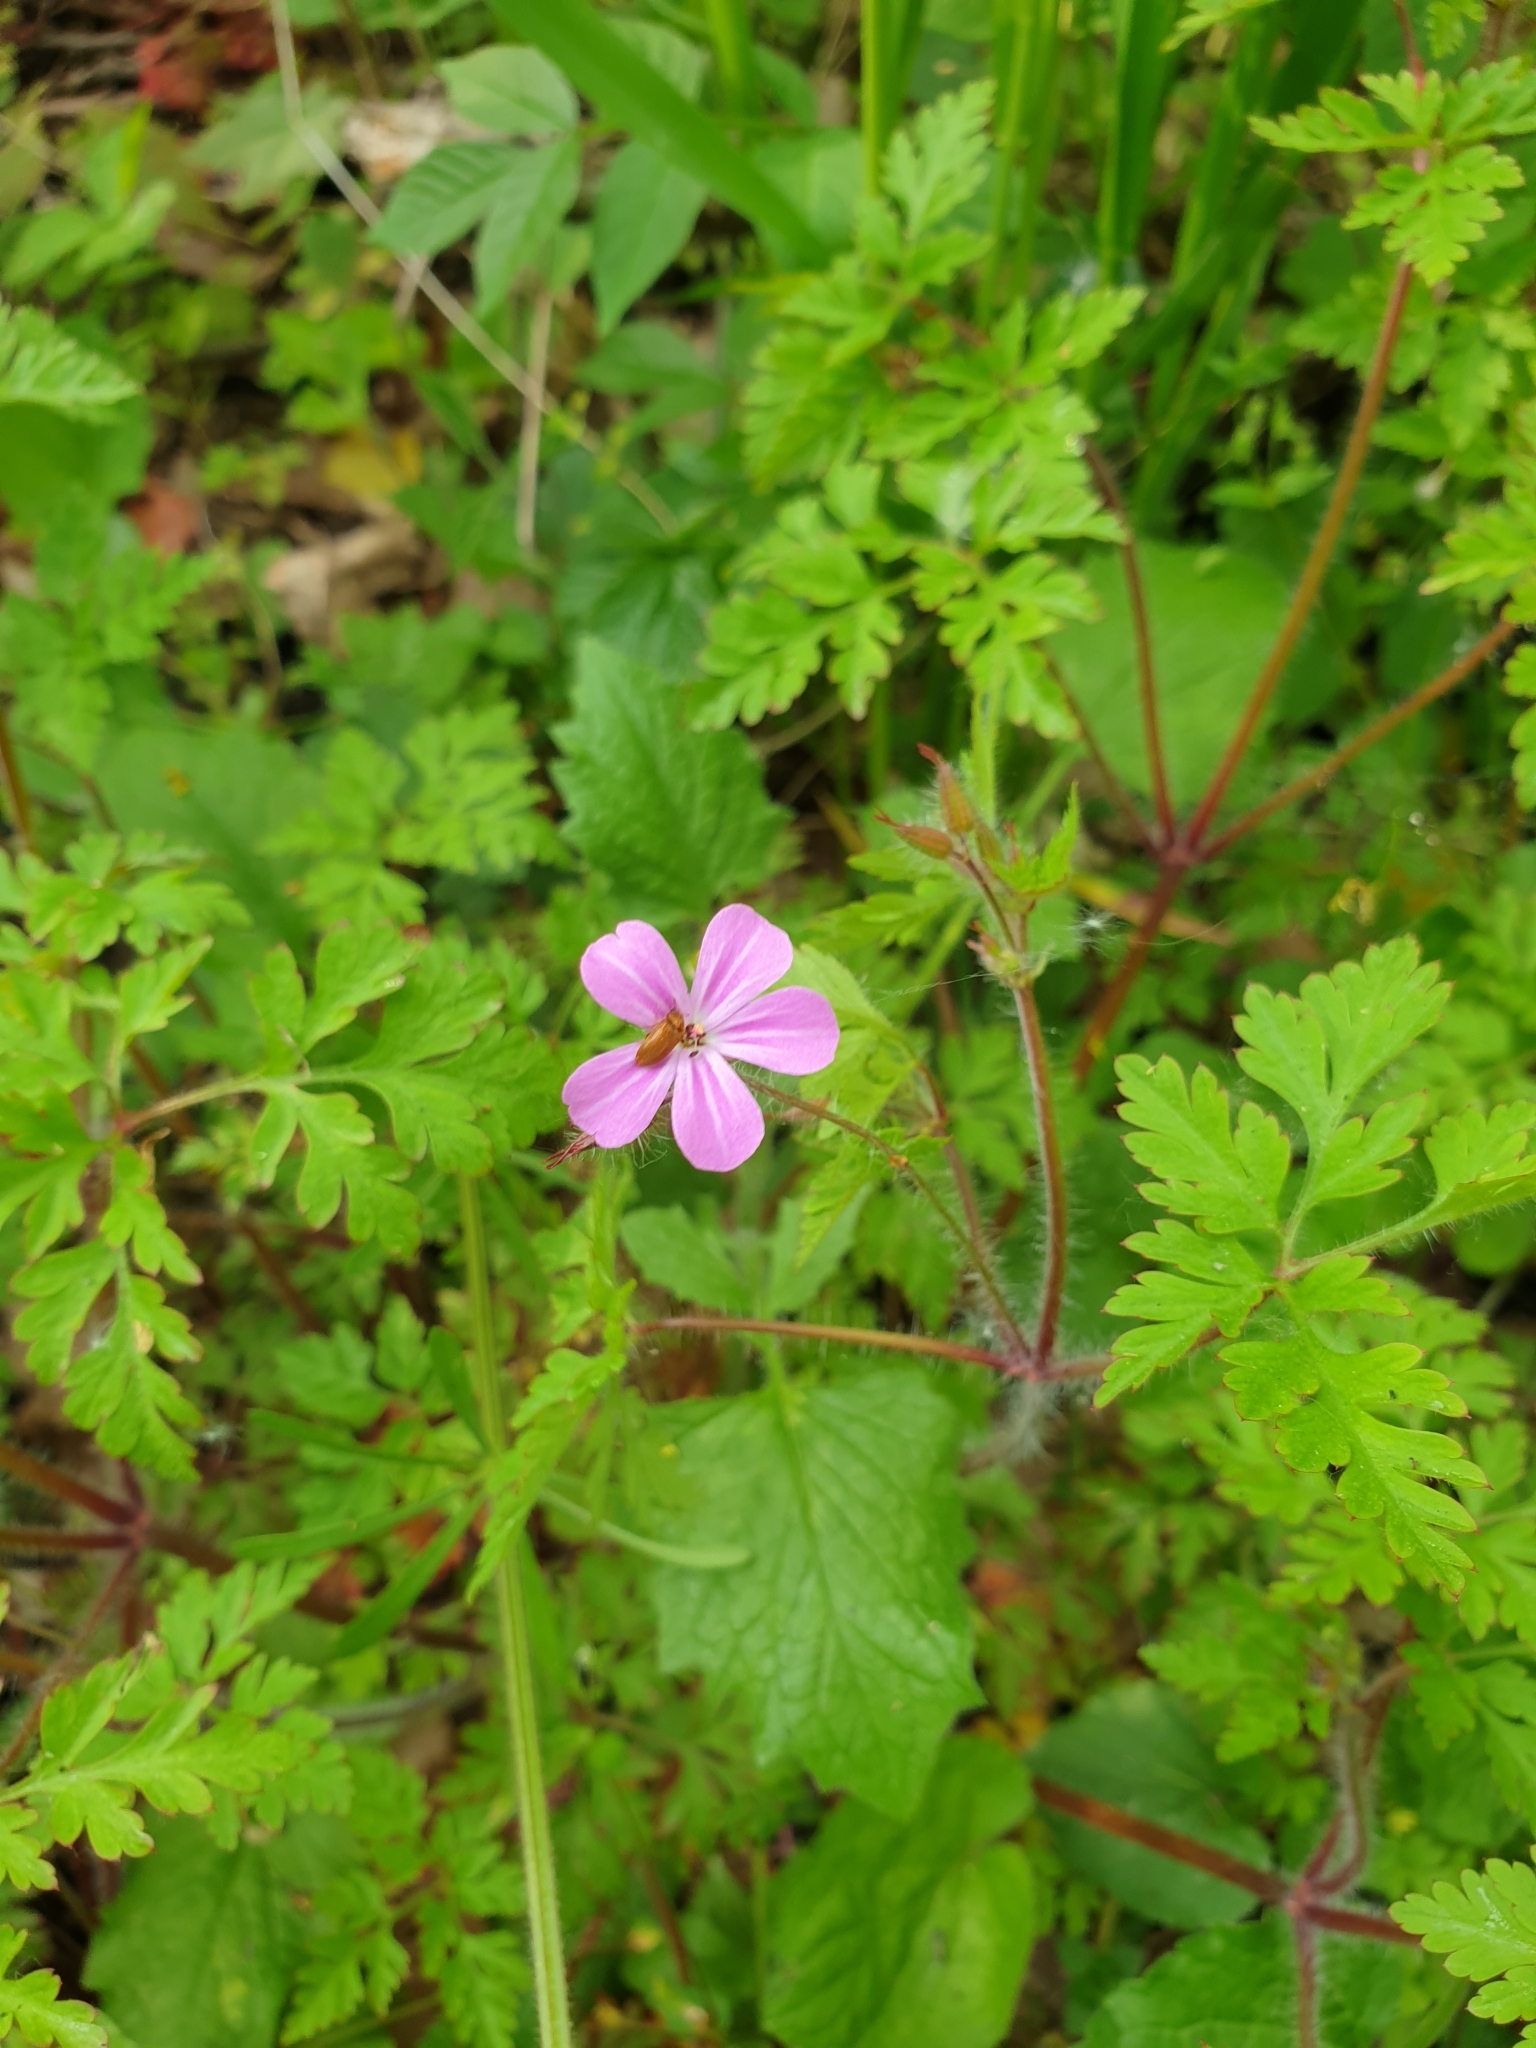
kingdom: Plantae
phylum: Tracheophyta
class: Magnoliopsida
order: Geraniales
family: Geraniaceae
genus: Geranium
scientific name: Geranium robertianum
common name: Herb-robert
